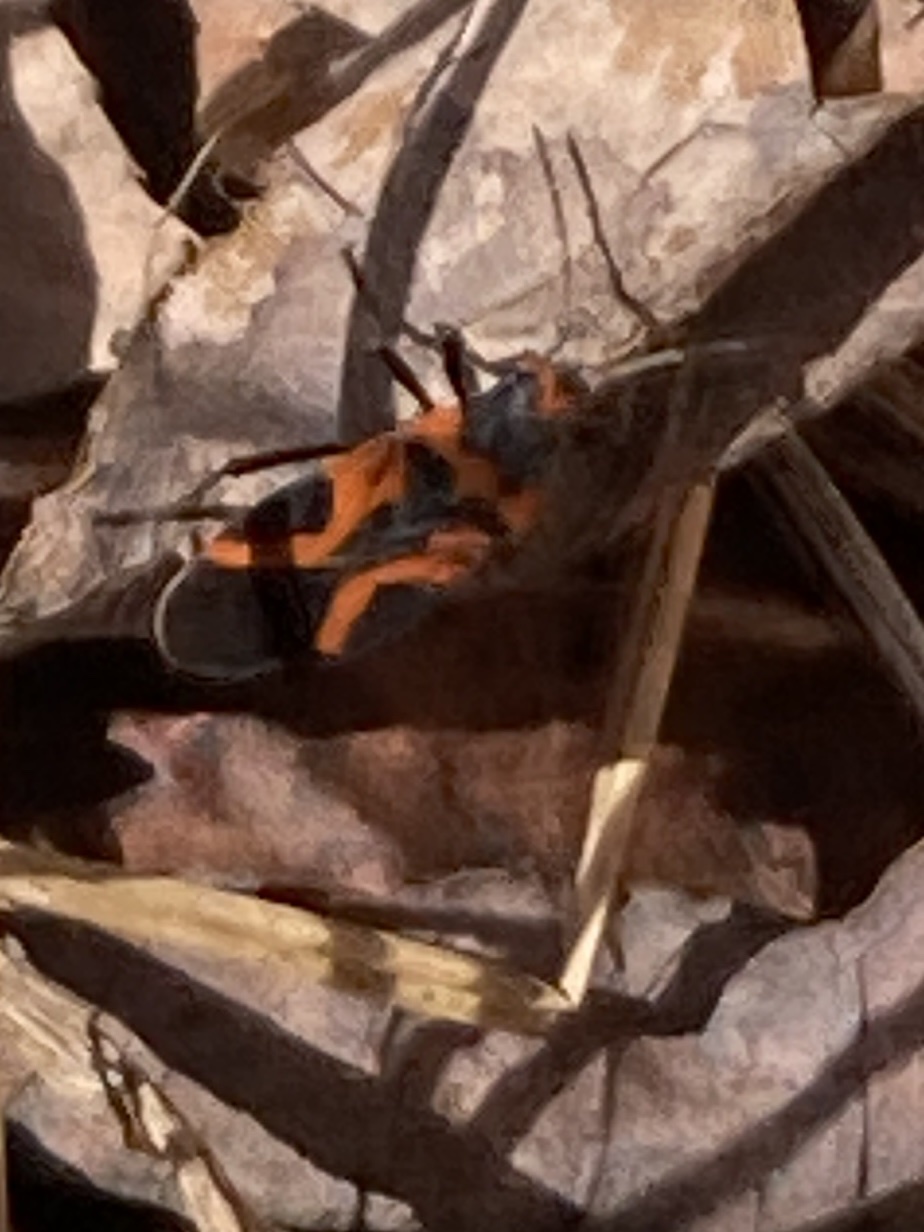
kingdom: Animalia
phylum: Arthropoda
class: Insecta
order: Hemiptera
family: Lygaeidae
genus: Lygaeus
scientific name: Lygaeus turcicus
